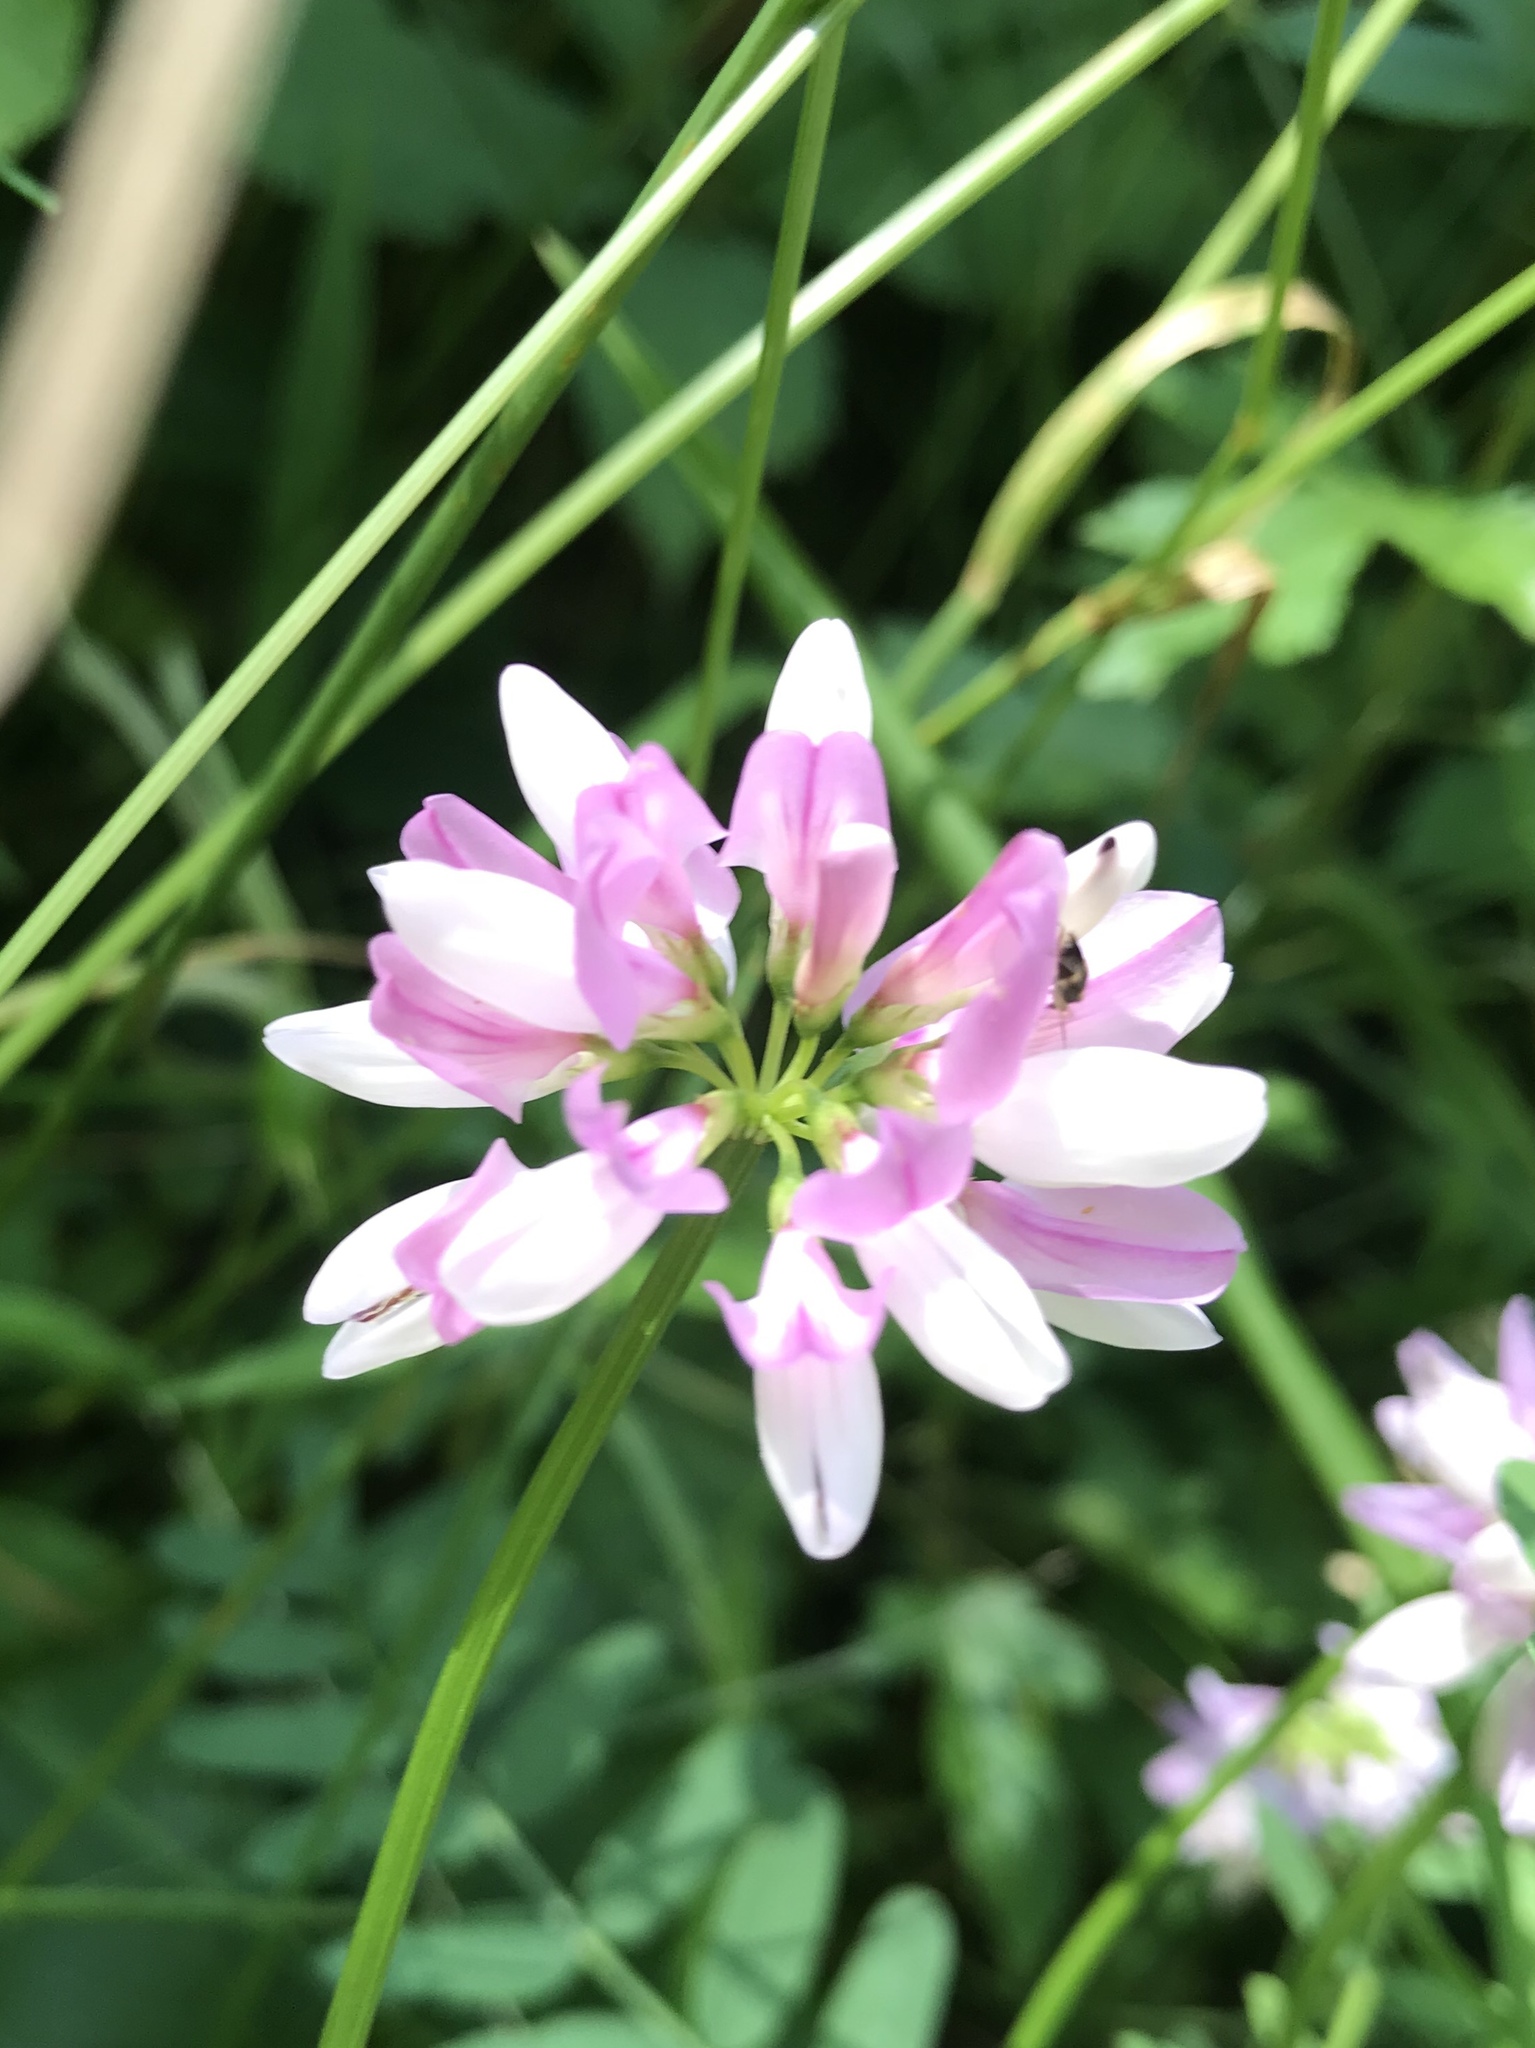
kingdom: Plantae
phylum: Tracheophyta
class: Magnoliopsida
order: Fabales
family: Fabaceae
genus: Coronilla
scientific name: Coronilla varia
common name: Crownvetch
